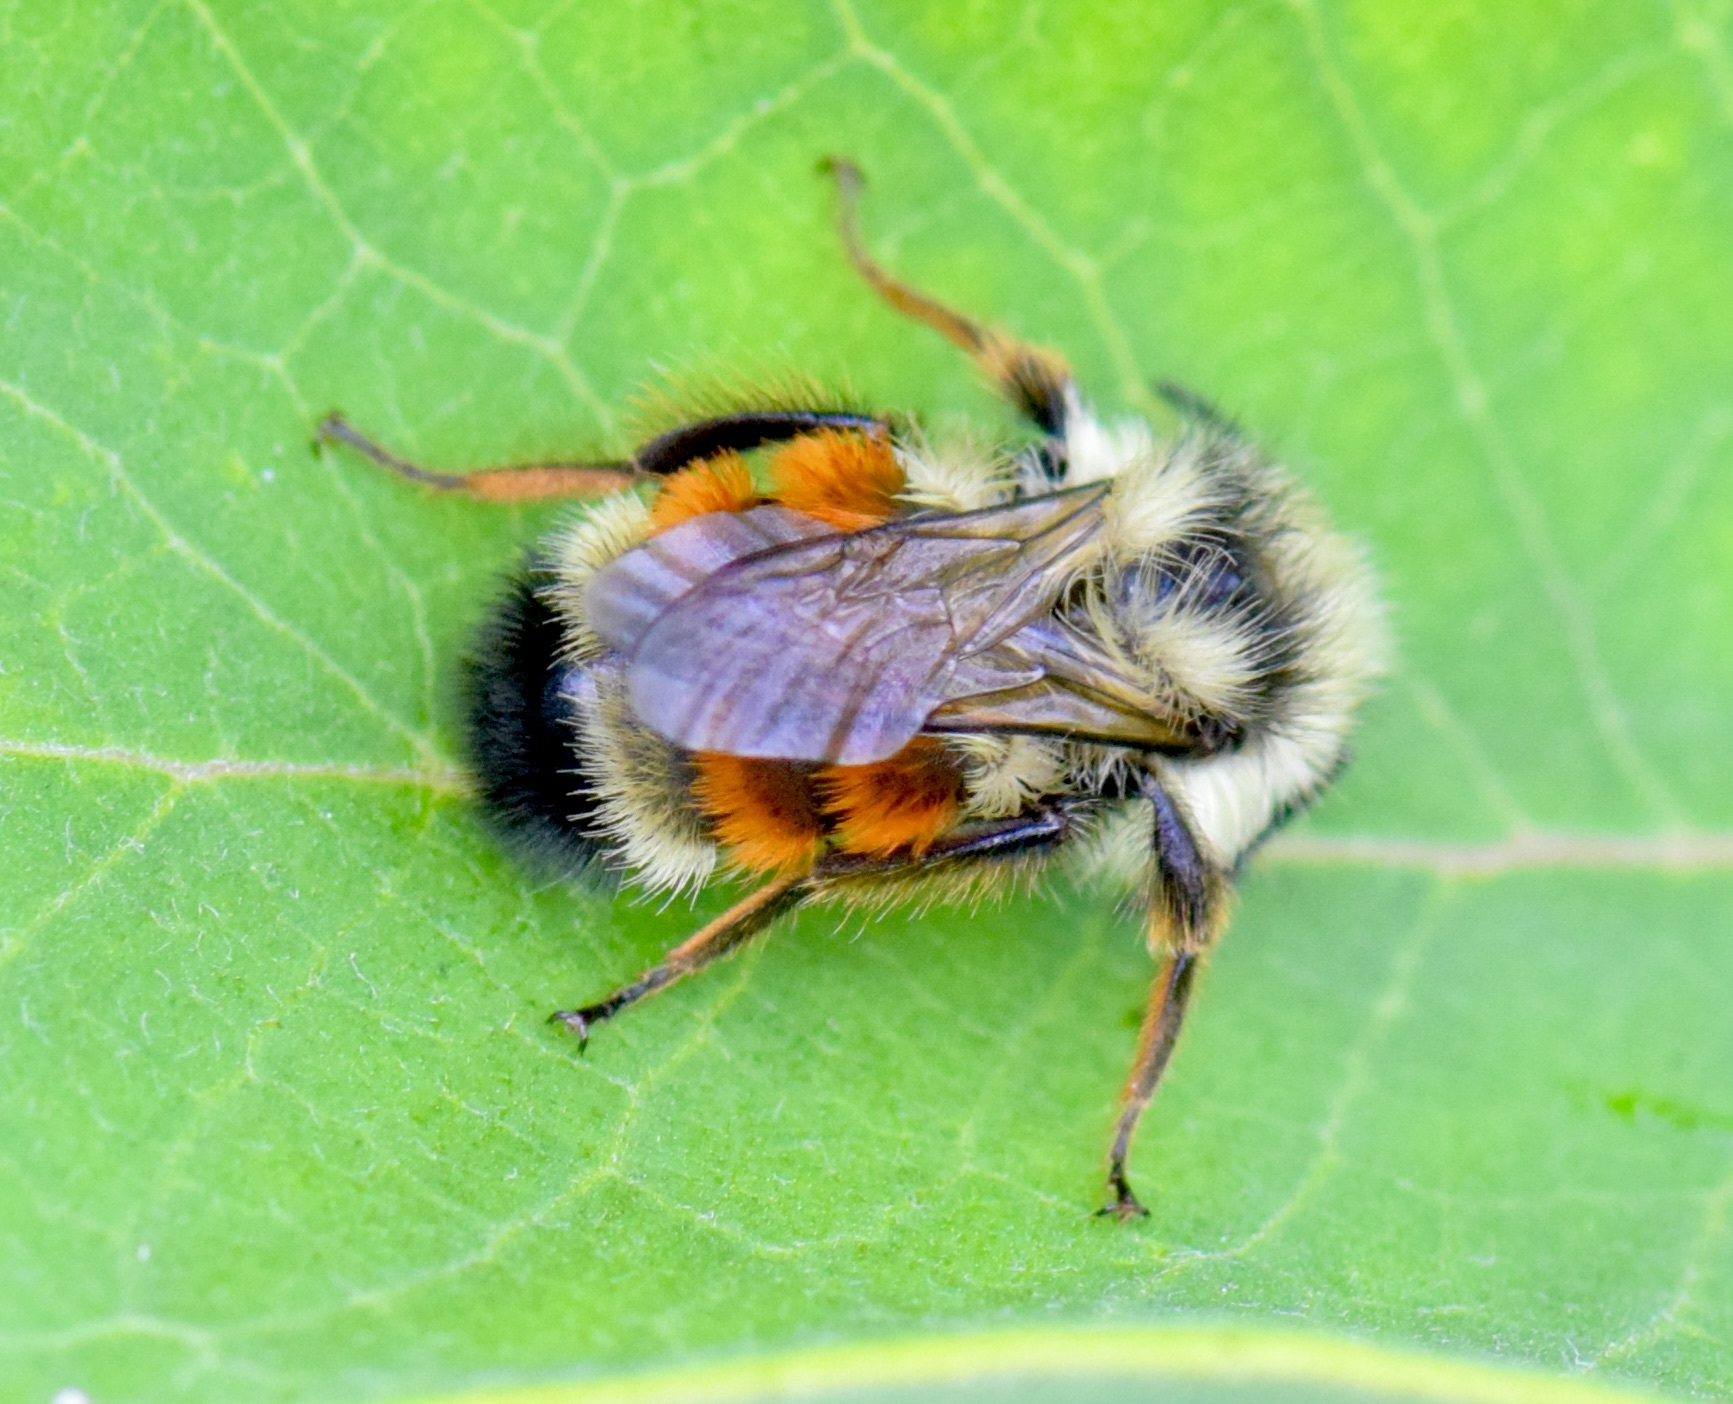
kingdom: Animalia
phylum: Arthropoda
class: Insecta
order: Hymenoptera
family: Apidae
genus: Bombus
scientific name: Bombus ternarius
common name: Tri-colored bumble bee
